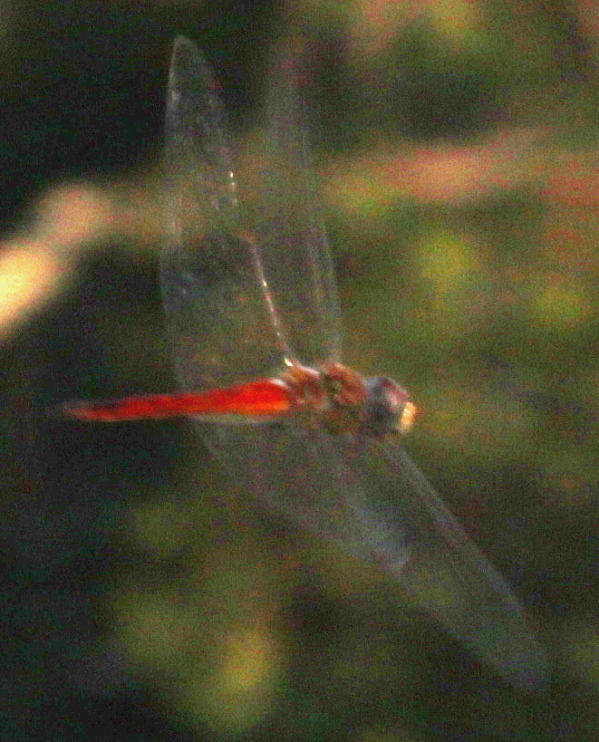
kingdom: Animalia
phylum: Arthropoda
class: Insecta
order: Odonata
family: Libellulidae
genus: Pantala
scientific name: Pantala flavescens
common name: Wandering glider
